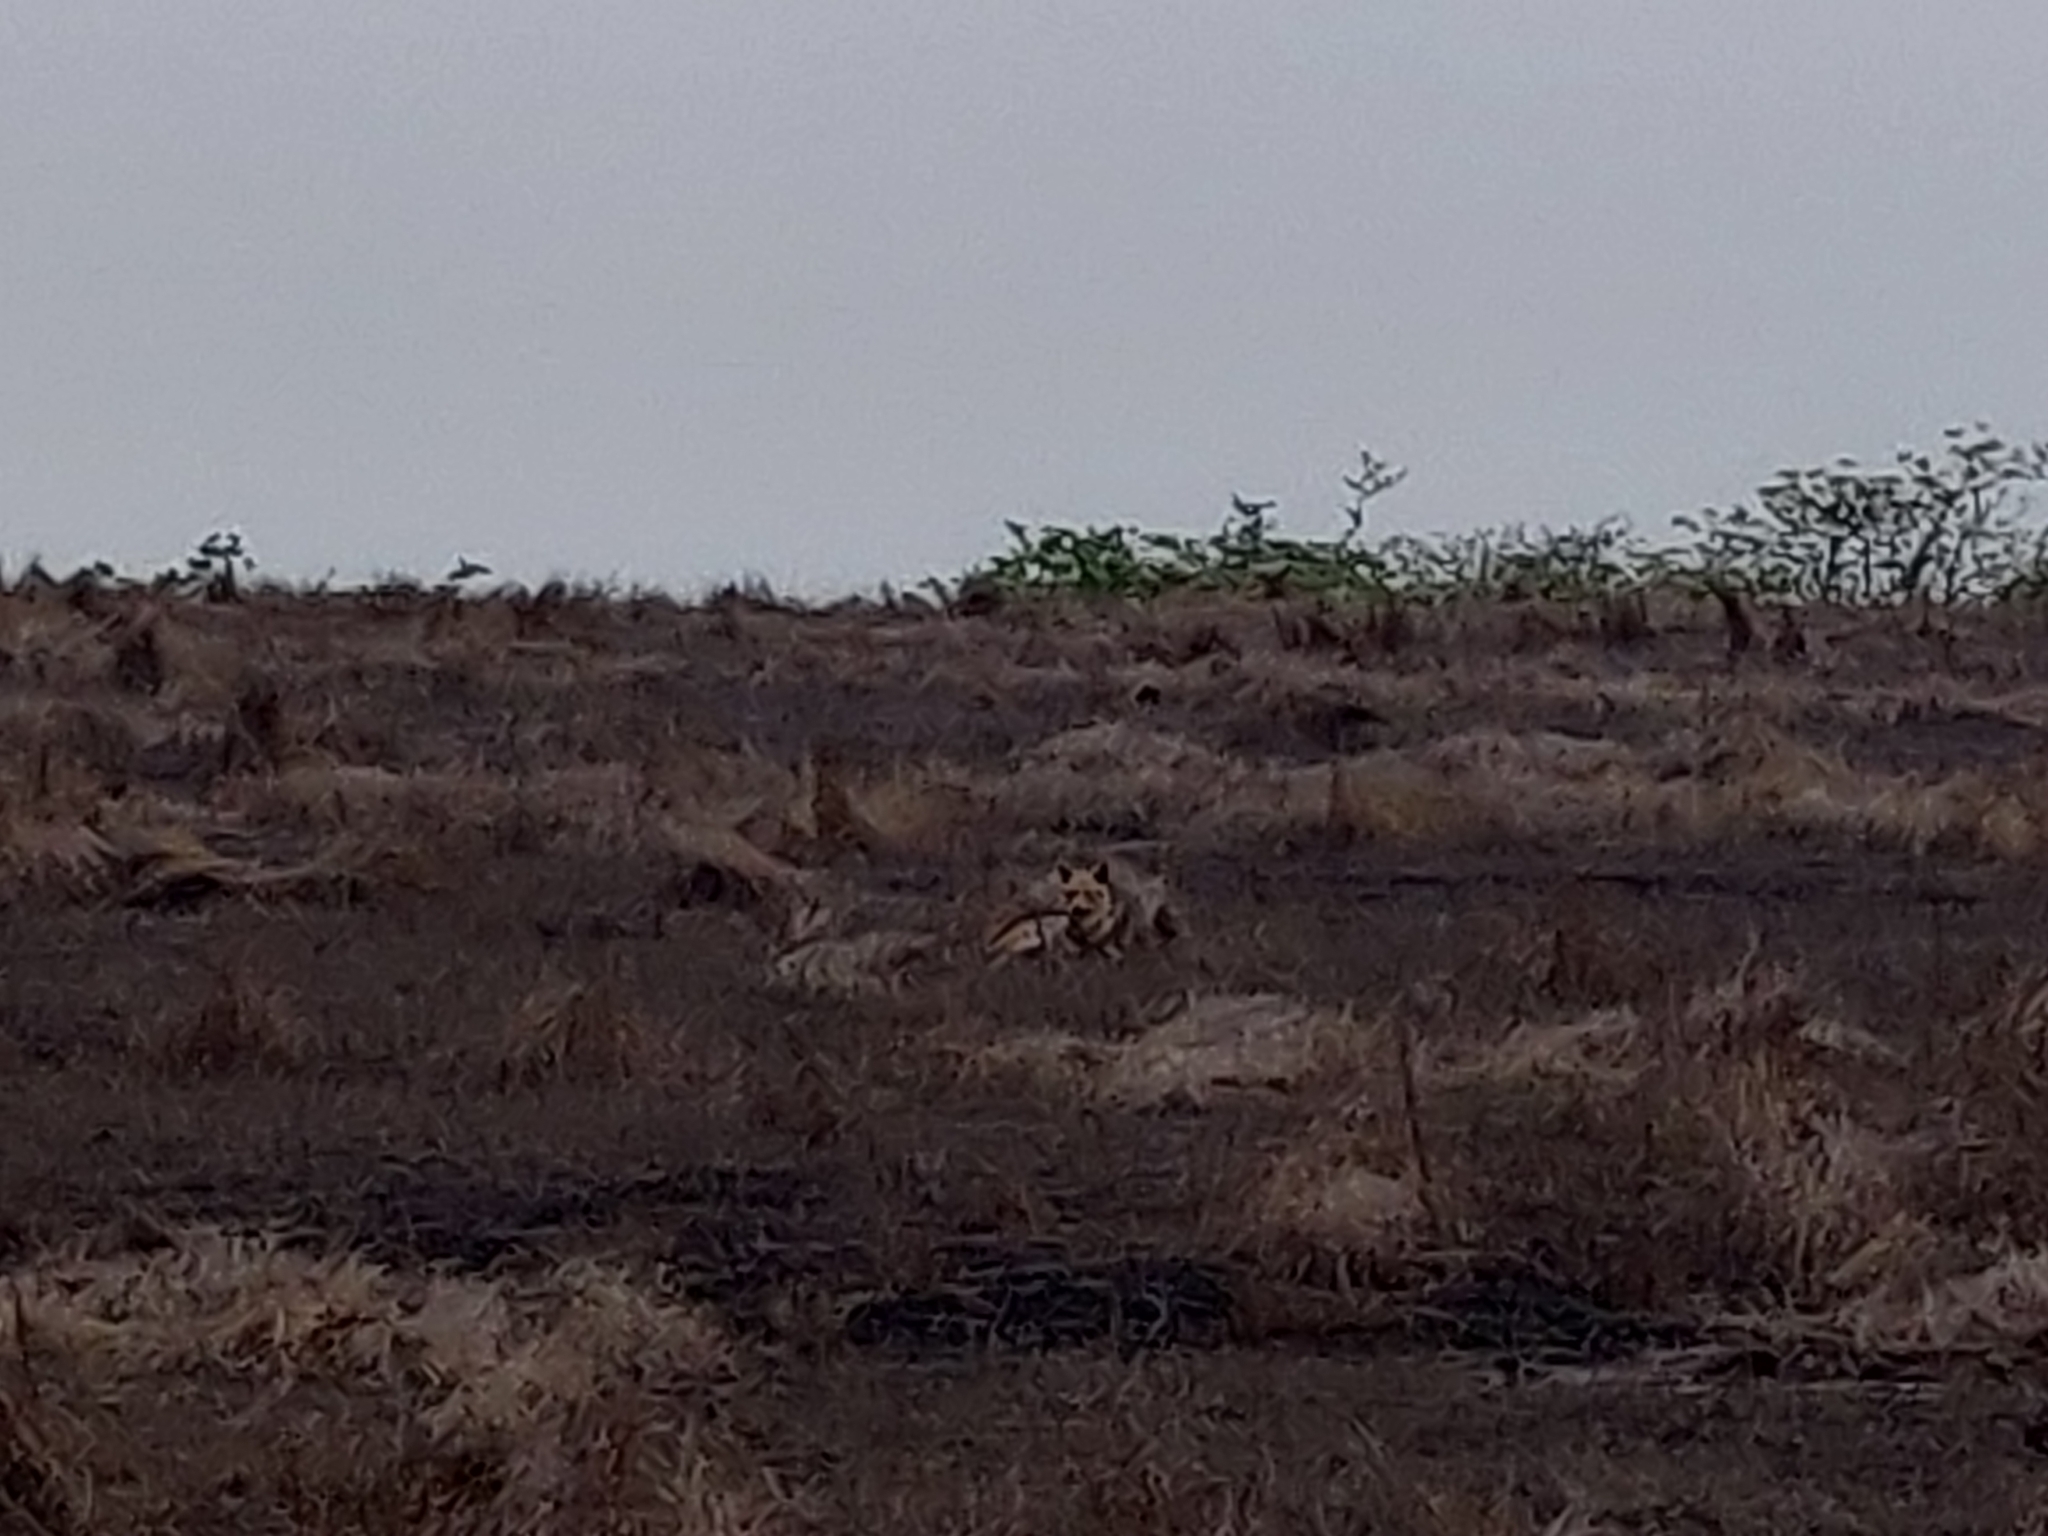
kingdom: Animalia
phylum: Chordata
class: Mammalia
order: Carnivora
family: Canidae
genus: Canis
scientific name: Canis aureus
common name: Golden jackal
